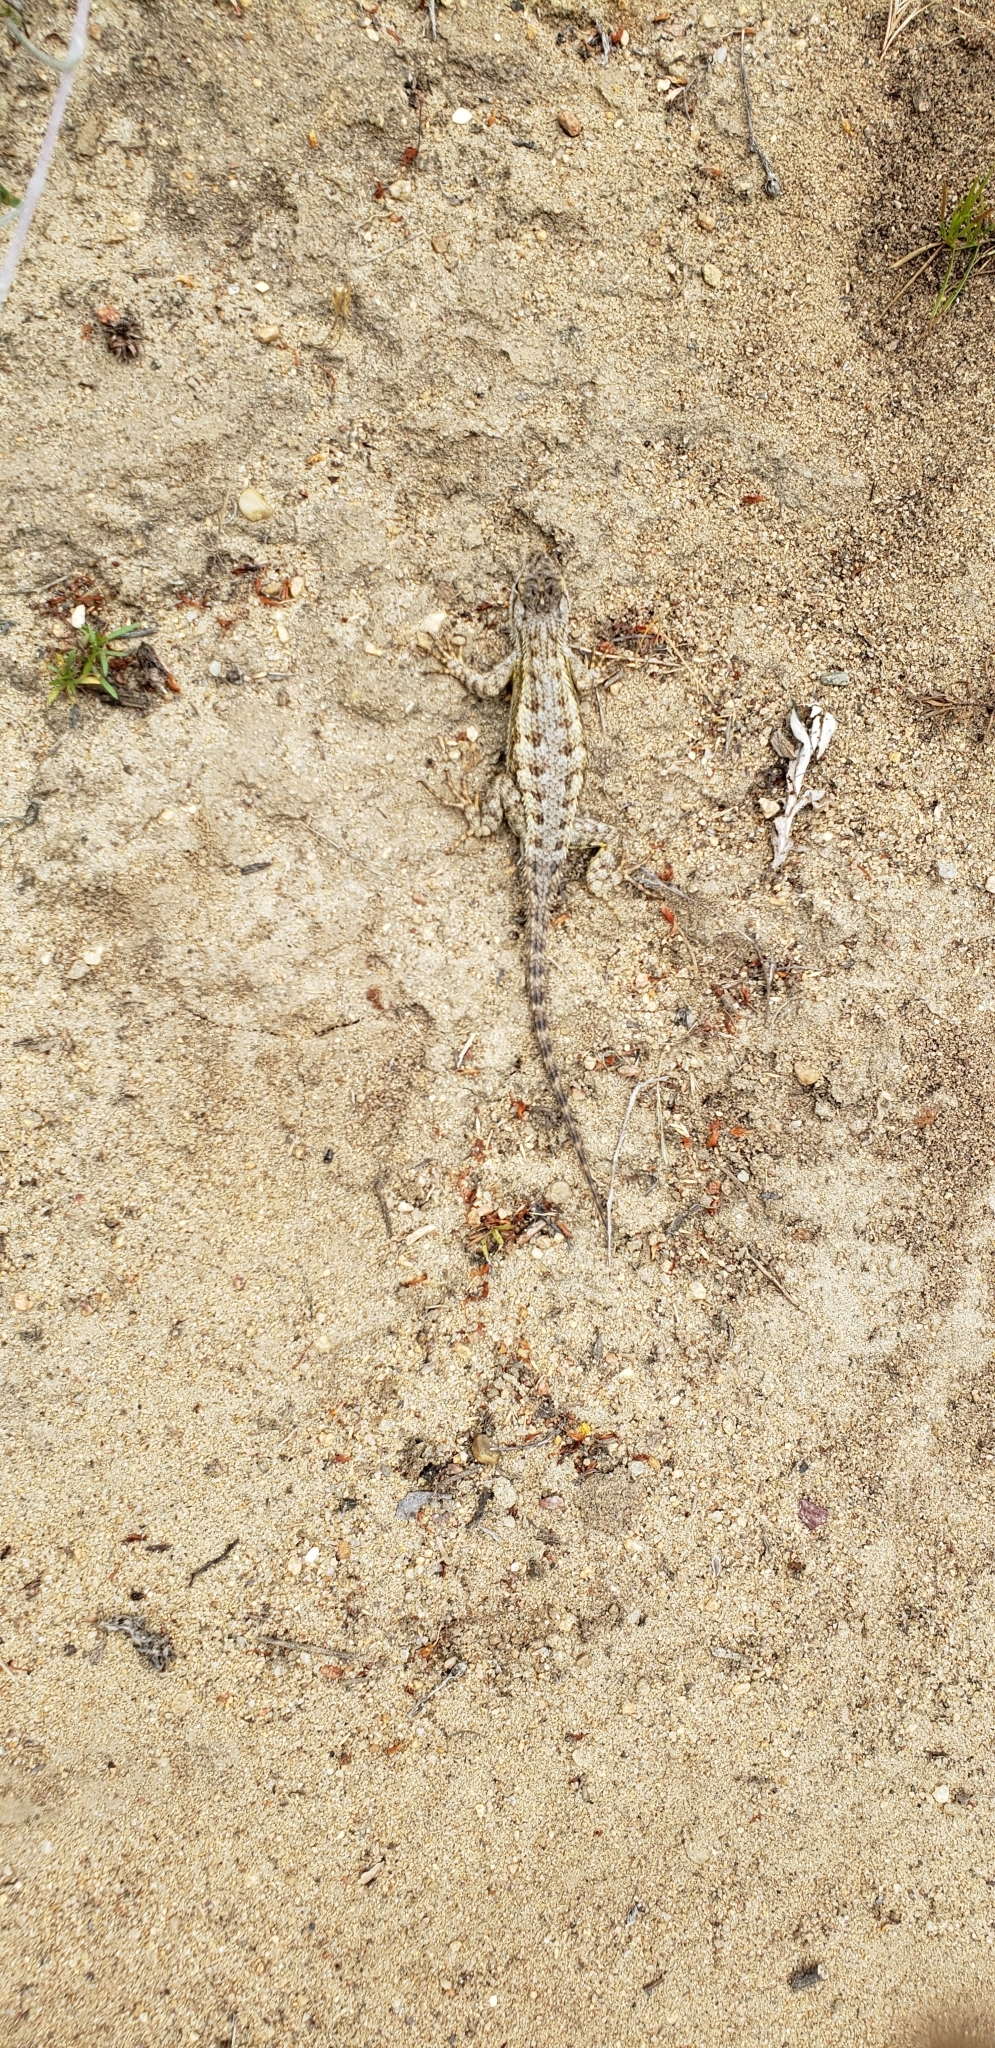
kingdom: Animalia
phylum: Chordata
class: Squamata
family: Phrynosomatidae
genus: Sceloporus
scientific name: Sceloporus occidentalis
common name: Western fence lizard
